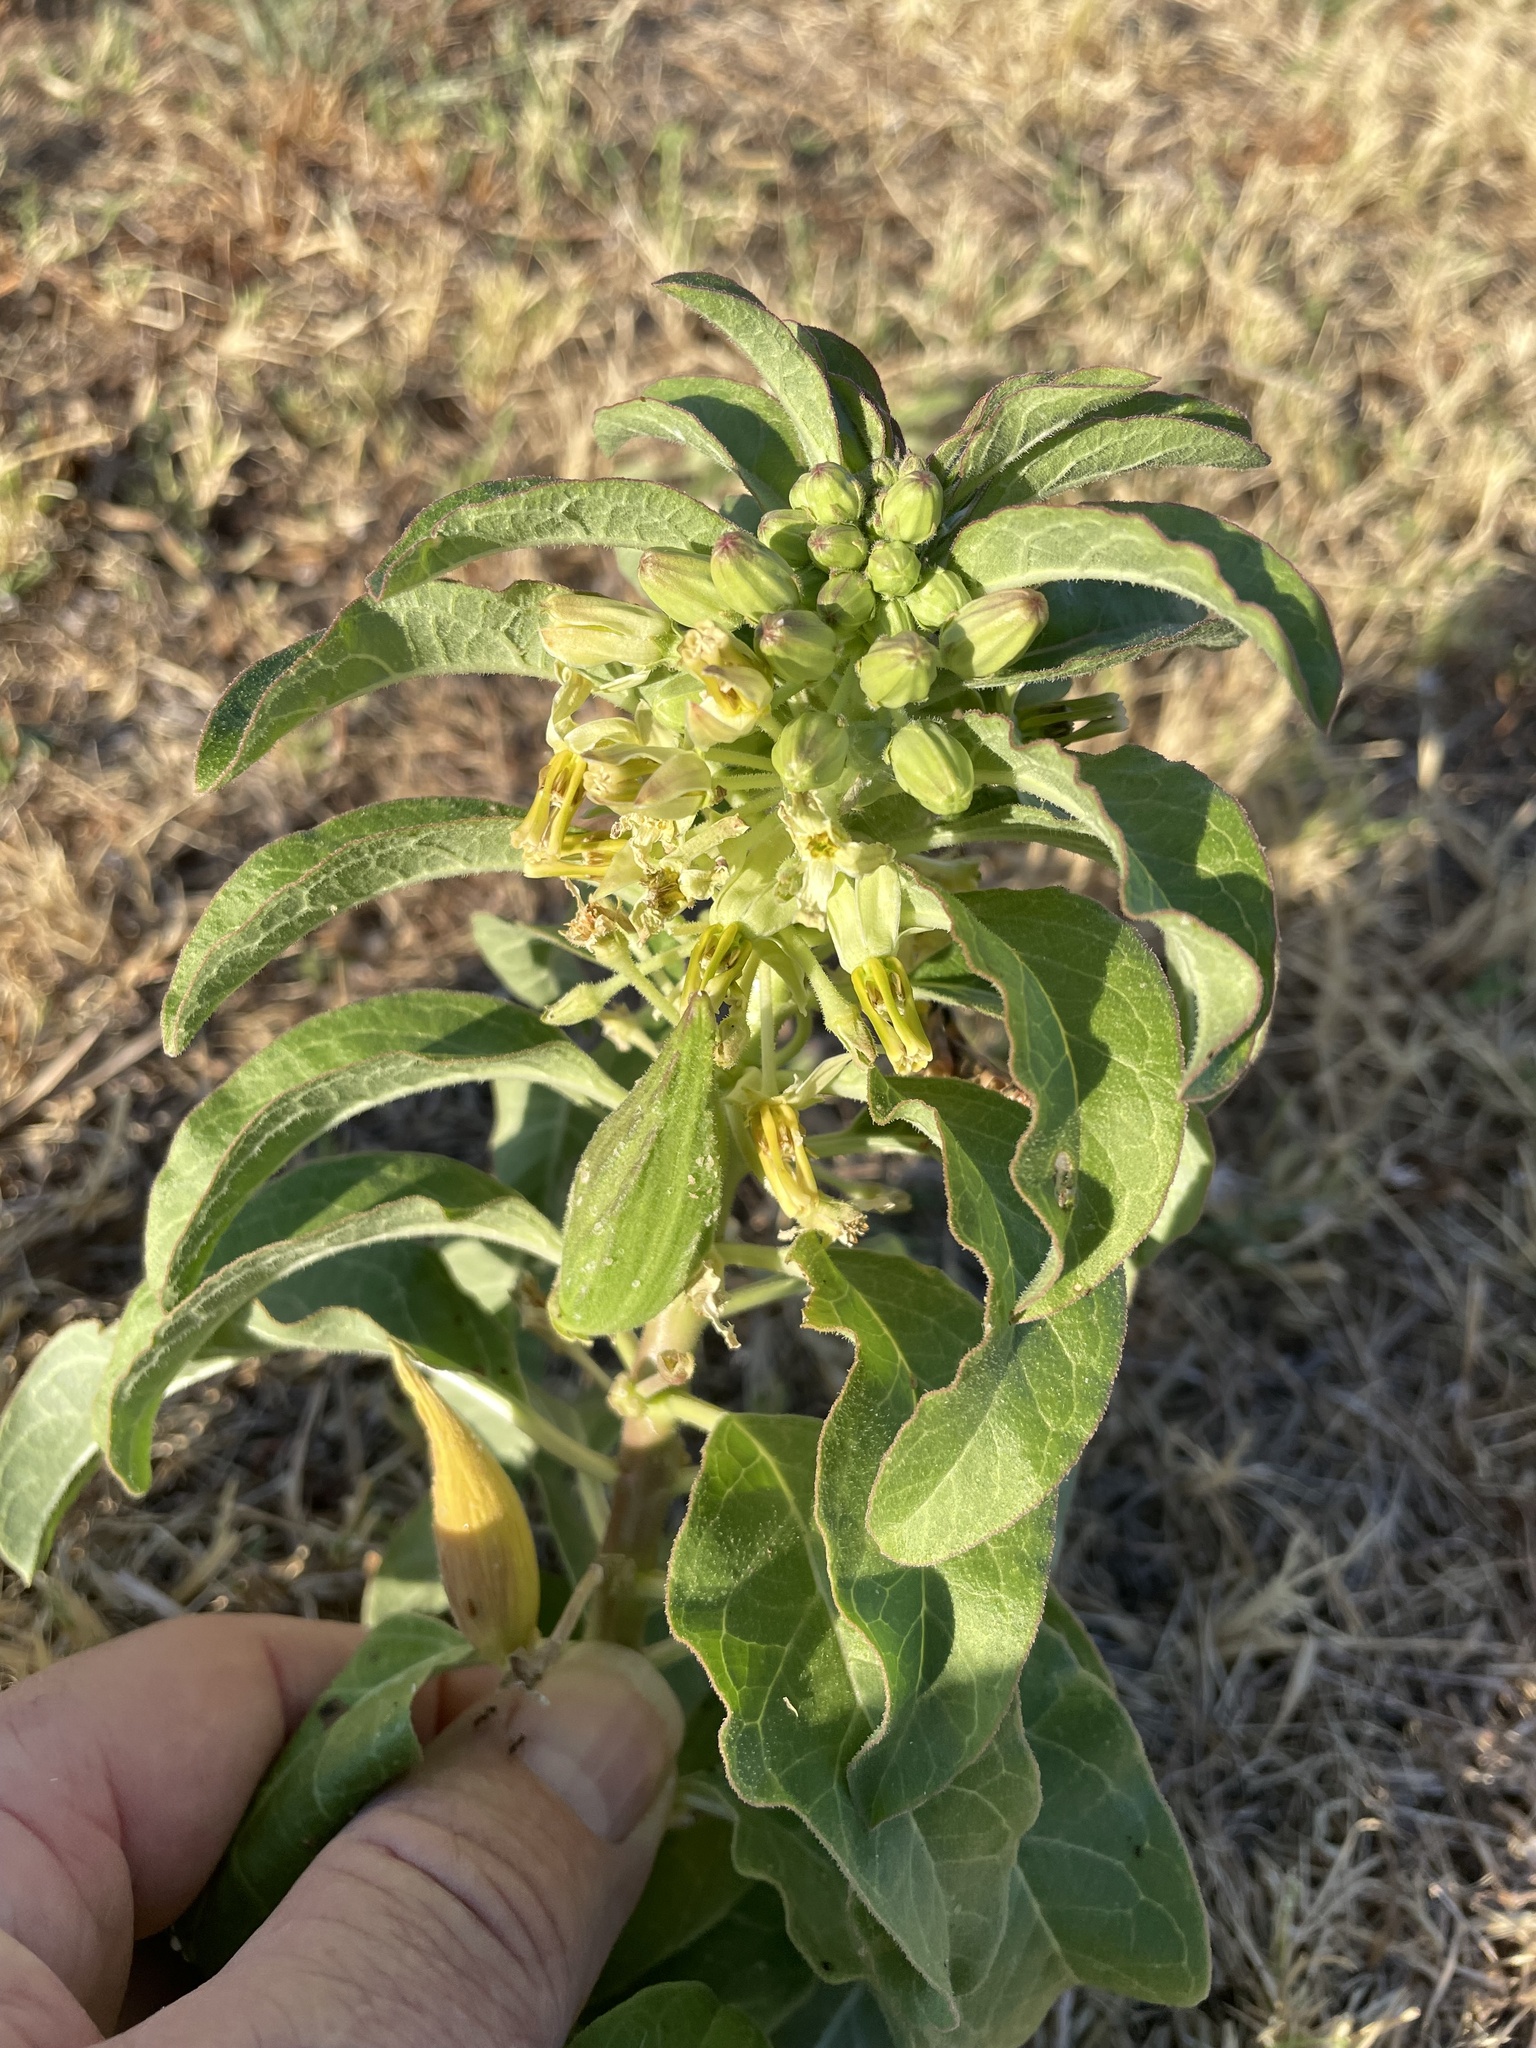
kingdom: Plantae
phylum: Tracheophyta
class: Magnoliopsida
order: Gentianales
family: Apocynaceae
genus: Asclepias
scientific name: Asclepias oenotheroides
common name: Zizotes milkweed
